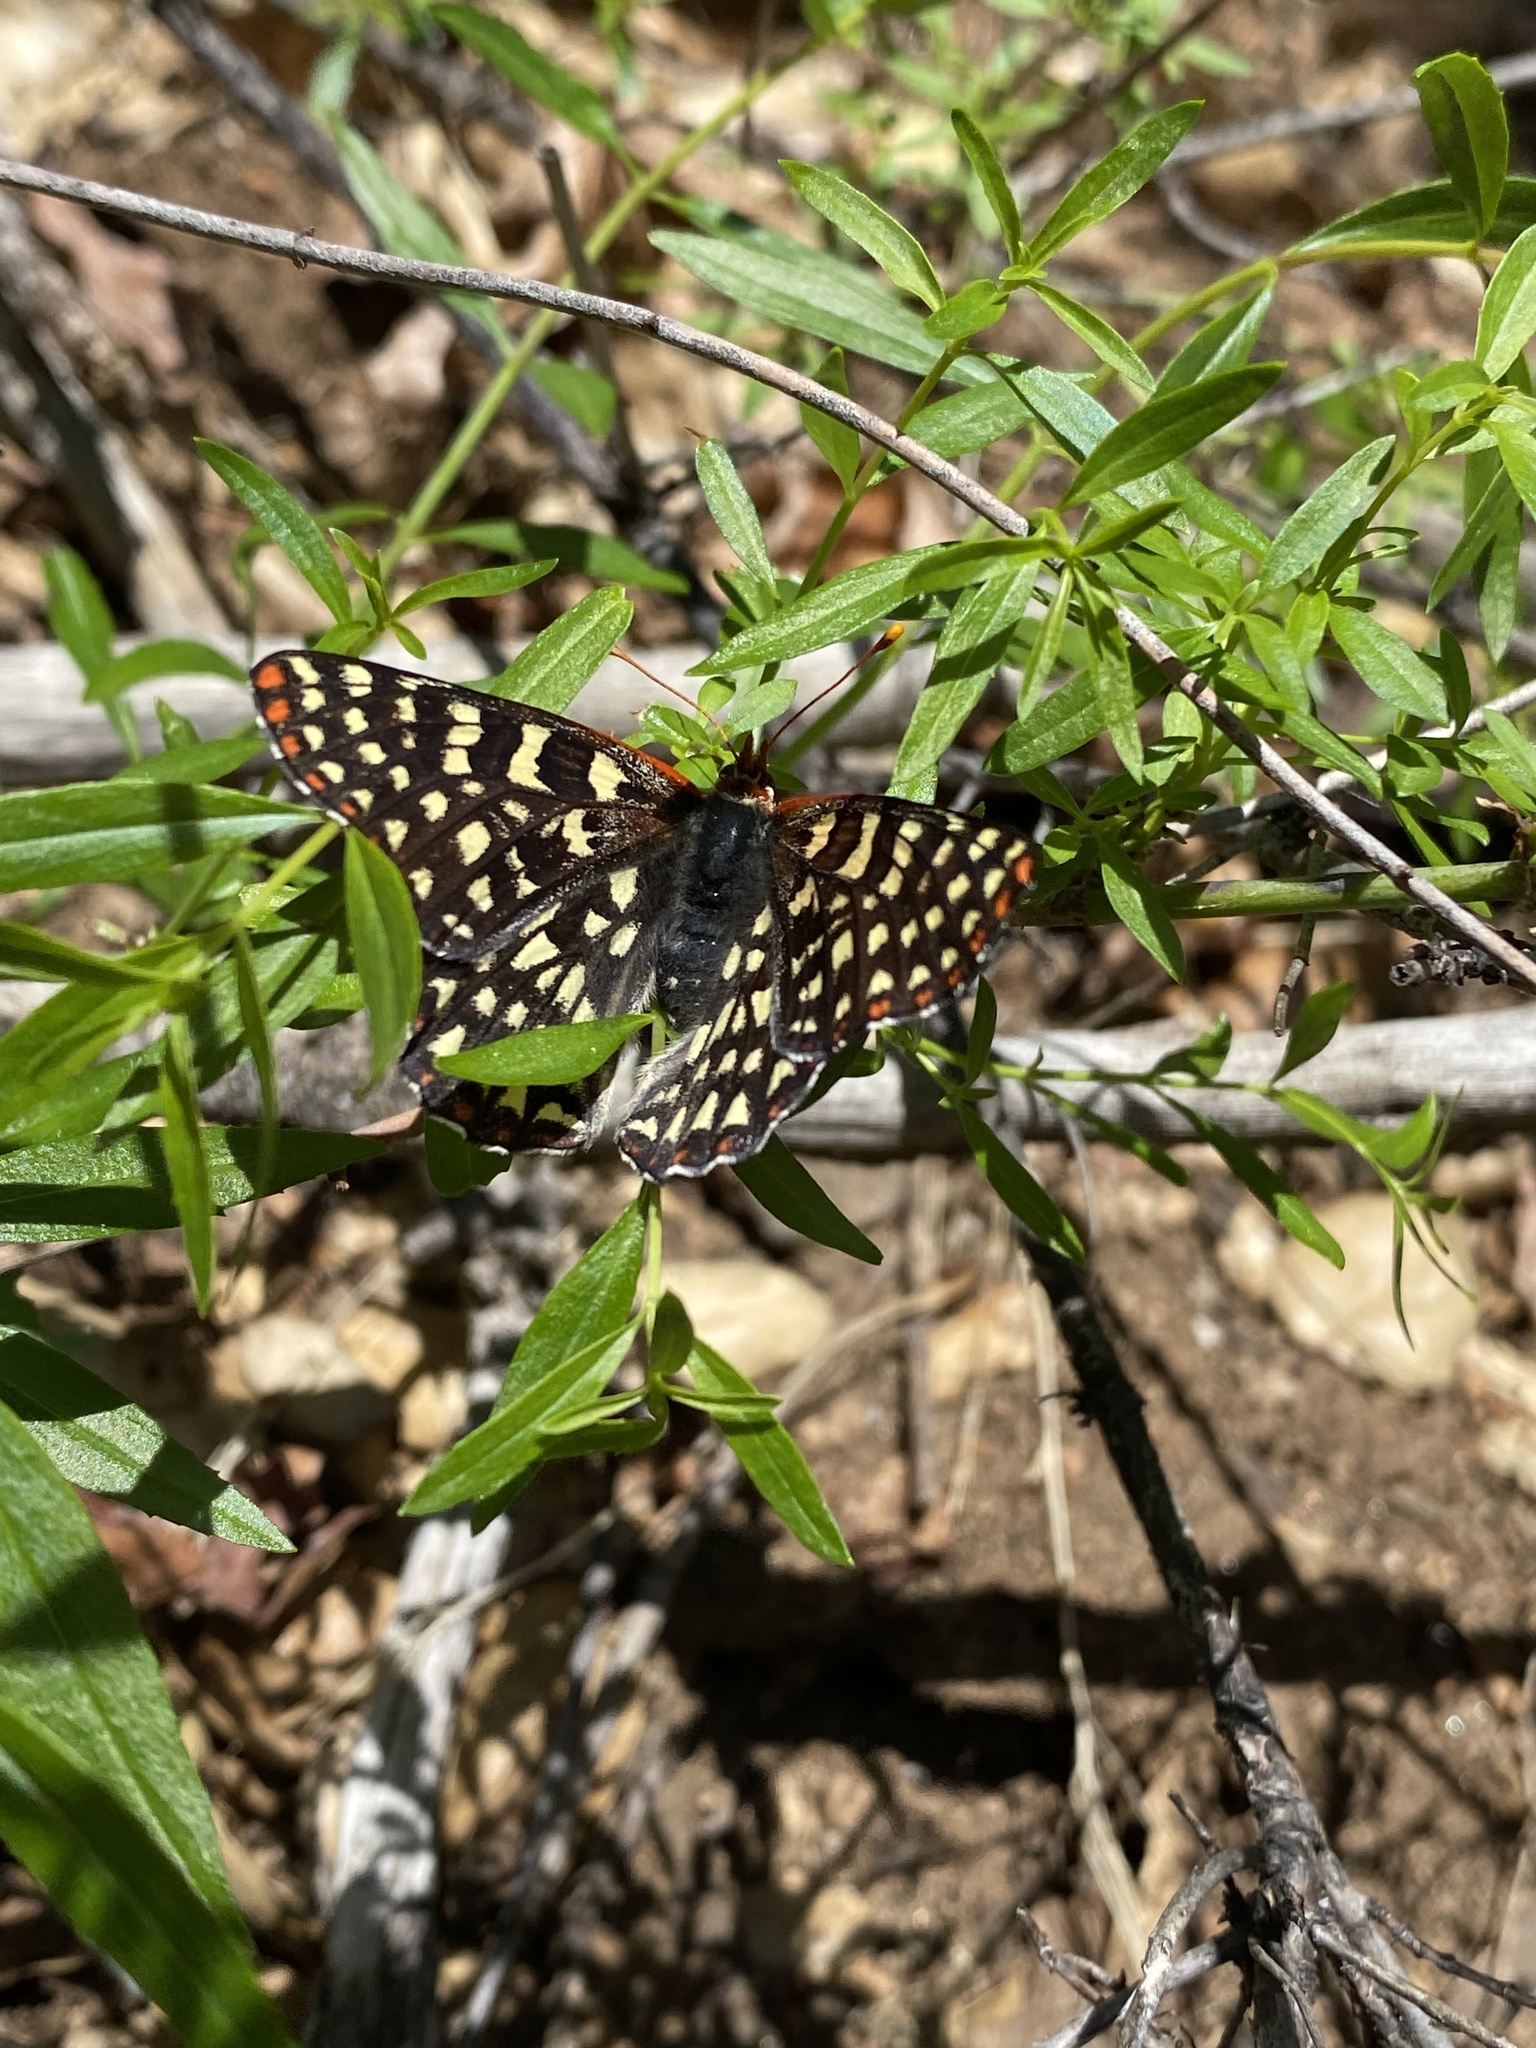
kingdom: Animalia
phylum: Arthropoda
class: Insecta
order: Lepidoptera
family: Nymphalidae
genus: Occidryas
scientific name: Occidryas chalcedona
